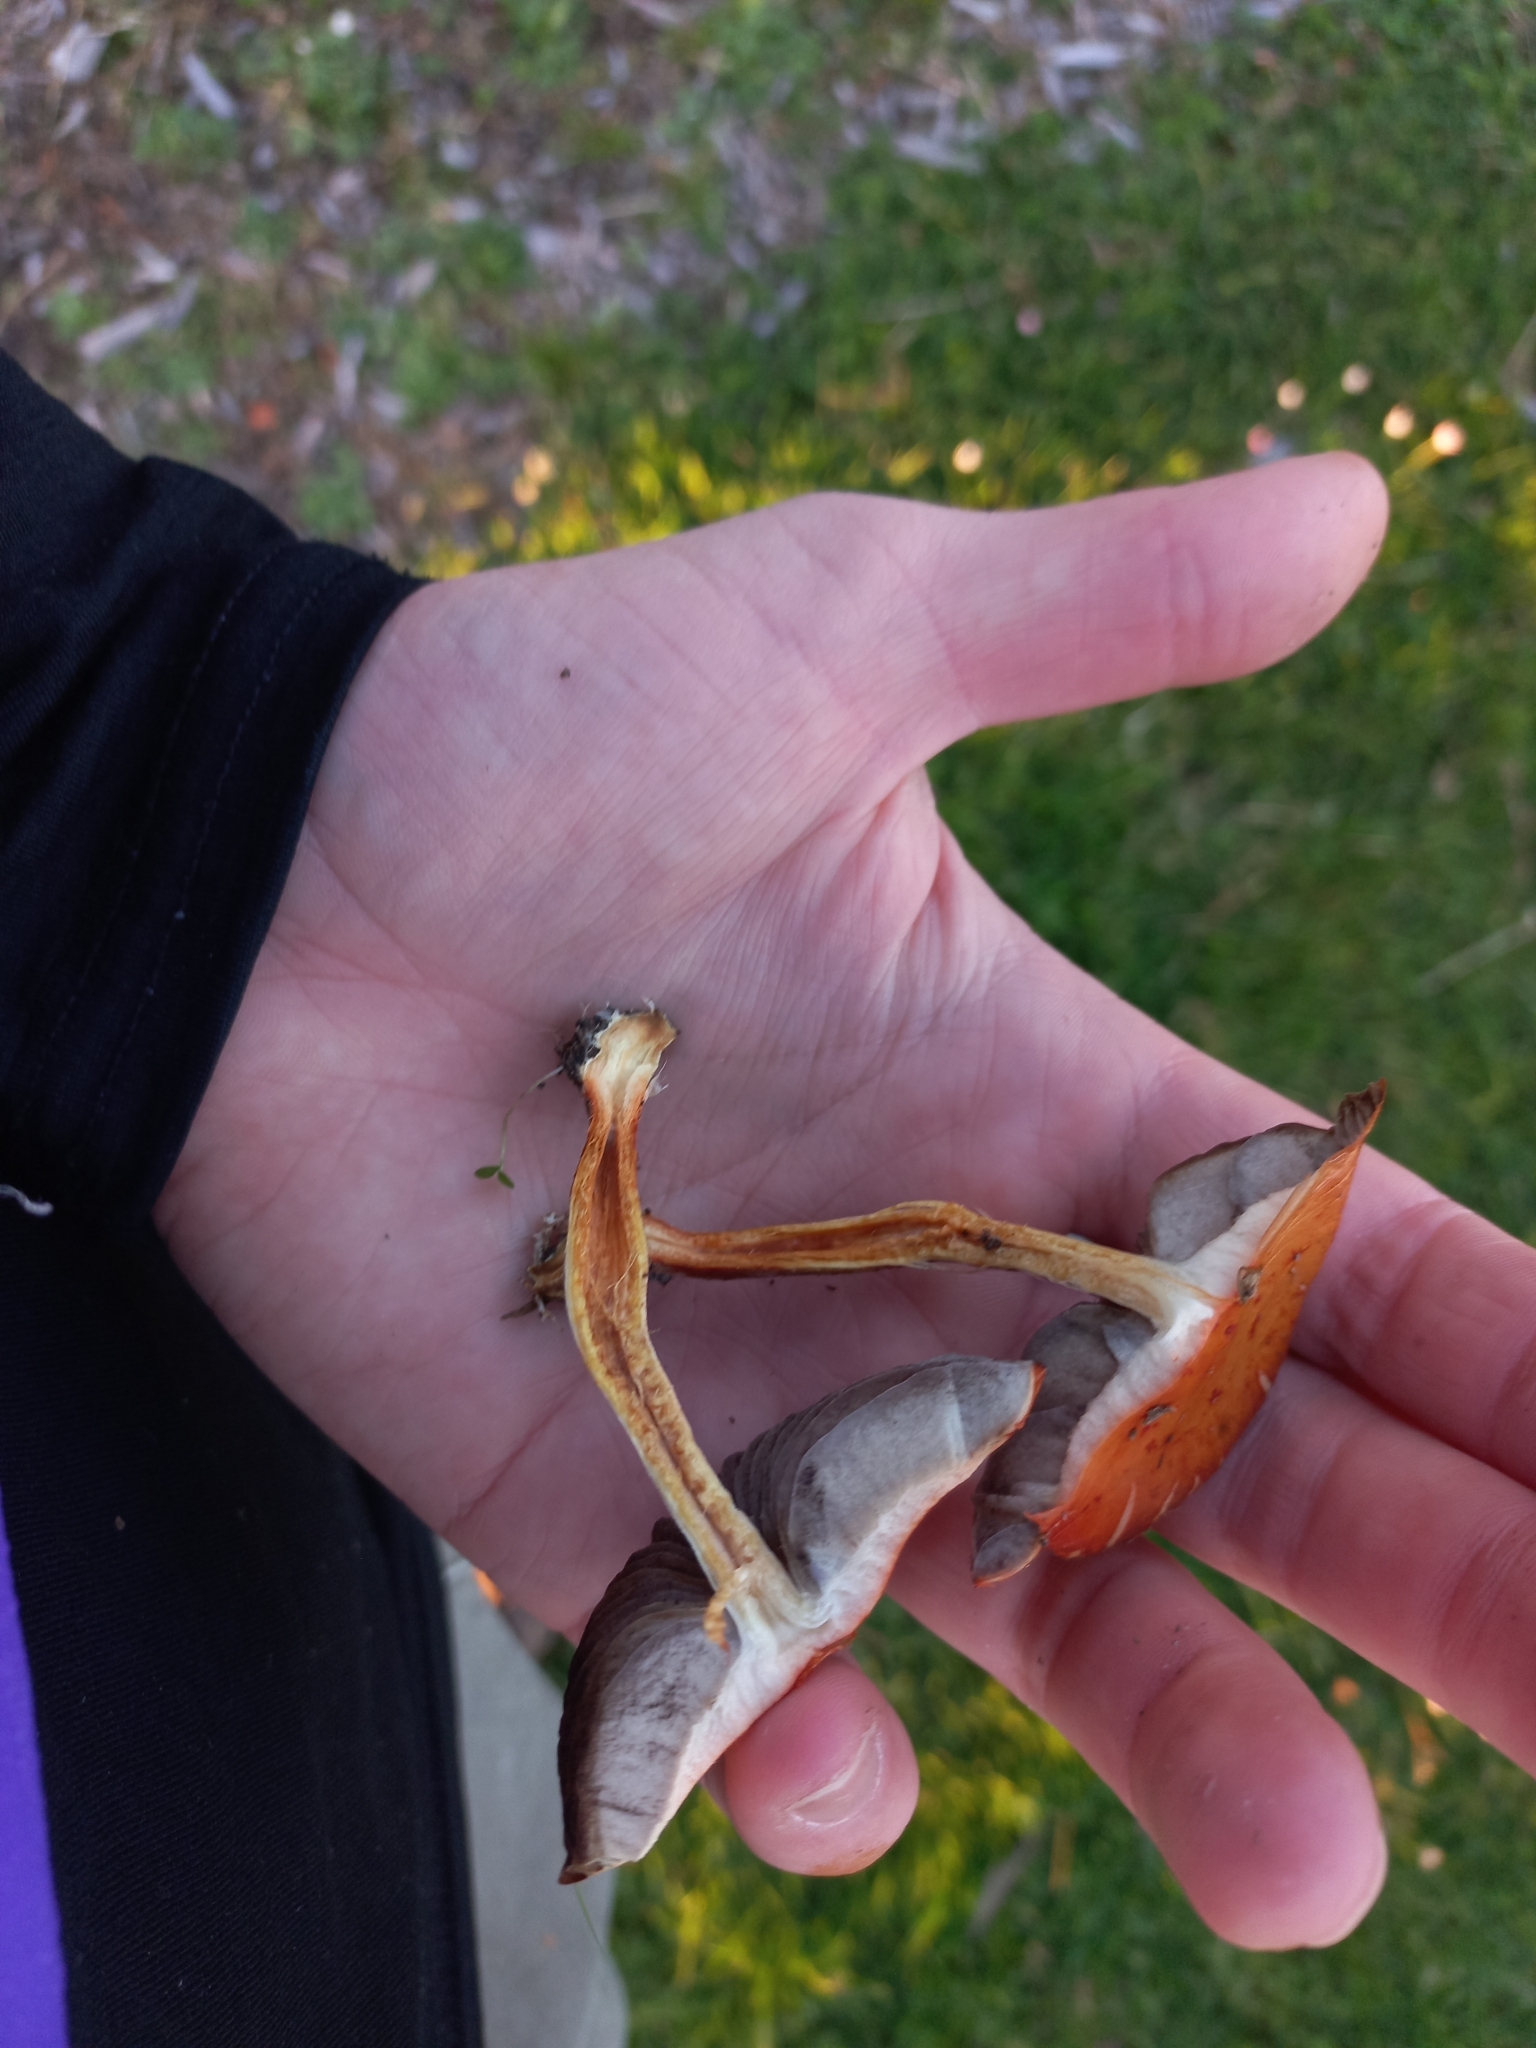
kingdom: Fungi
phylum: Basidiomycota
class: Agaricomycetes
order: Agaricales
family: Strophariaceae
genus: Leratiomyces
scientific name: Leratiomyces ceres
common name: Redlead roundhead
